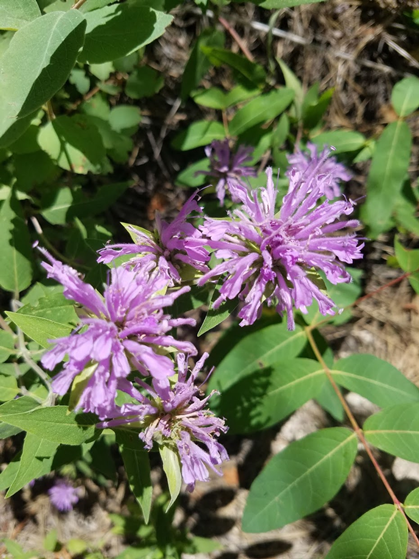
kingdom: Plantae
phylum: Tracheophyta
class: Magnoliopsida
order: Lamiales
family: Lamiaceae
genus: Monarda
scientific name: Monarda fistulosa
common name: Purple beebalm
